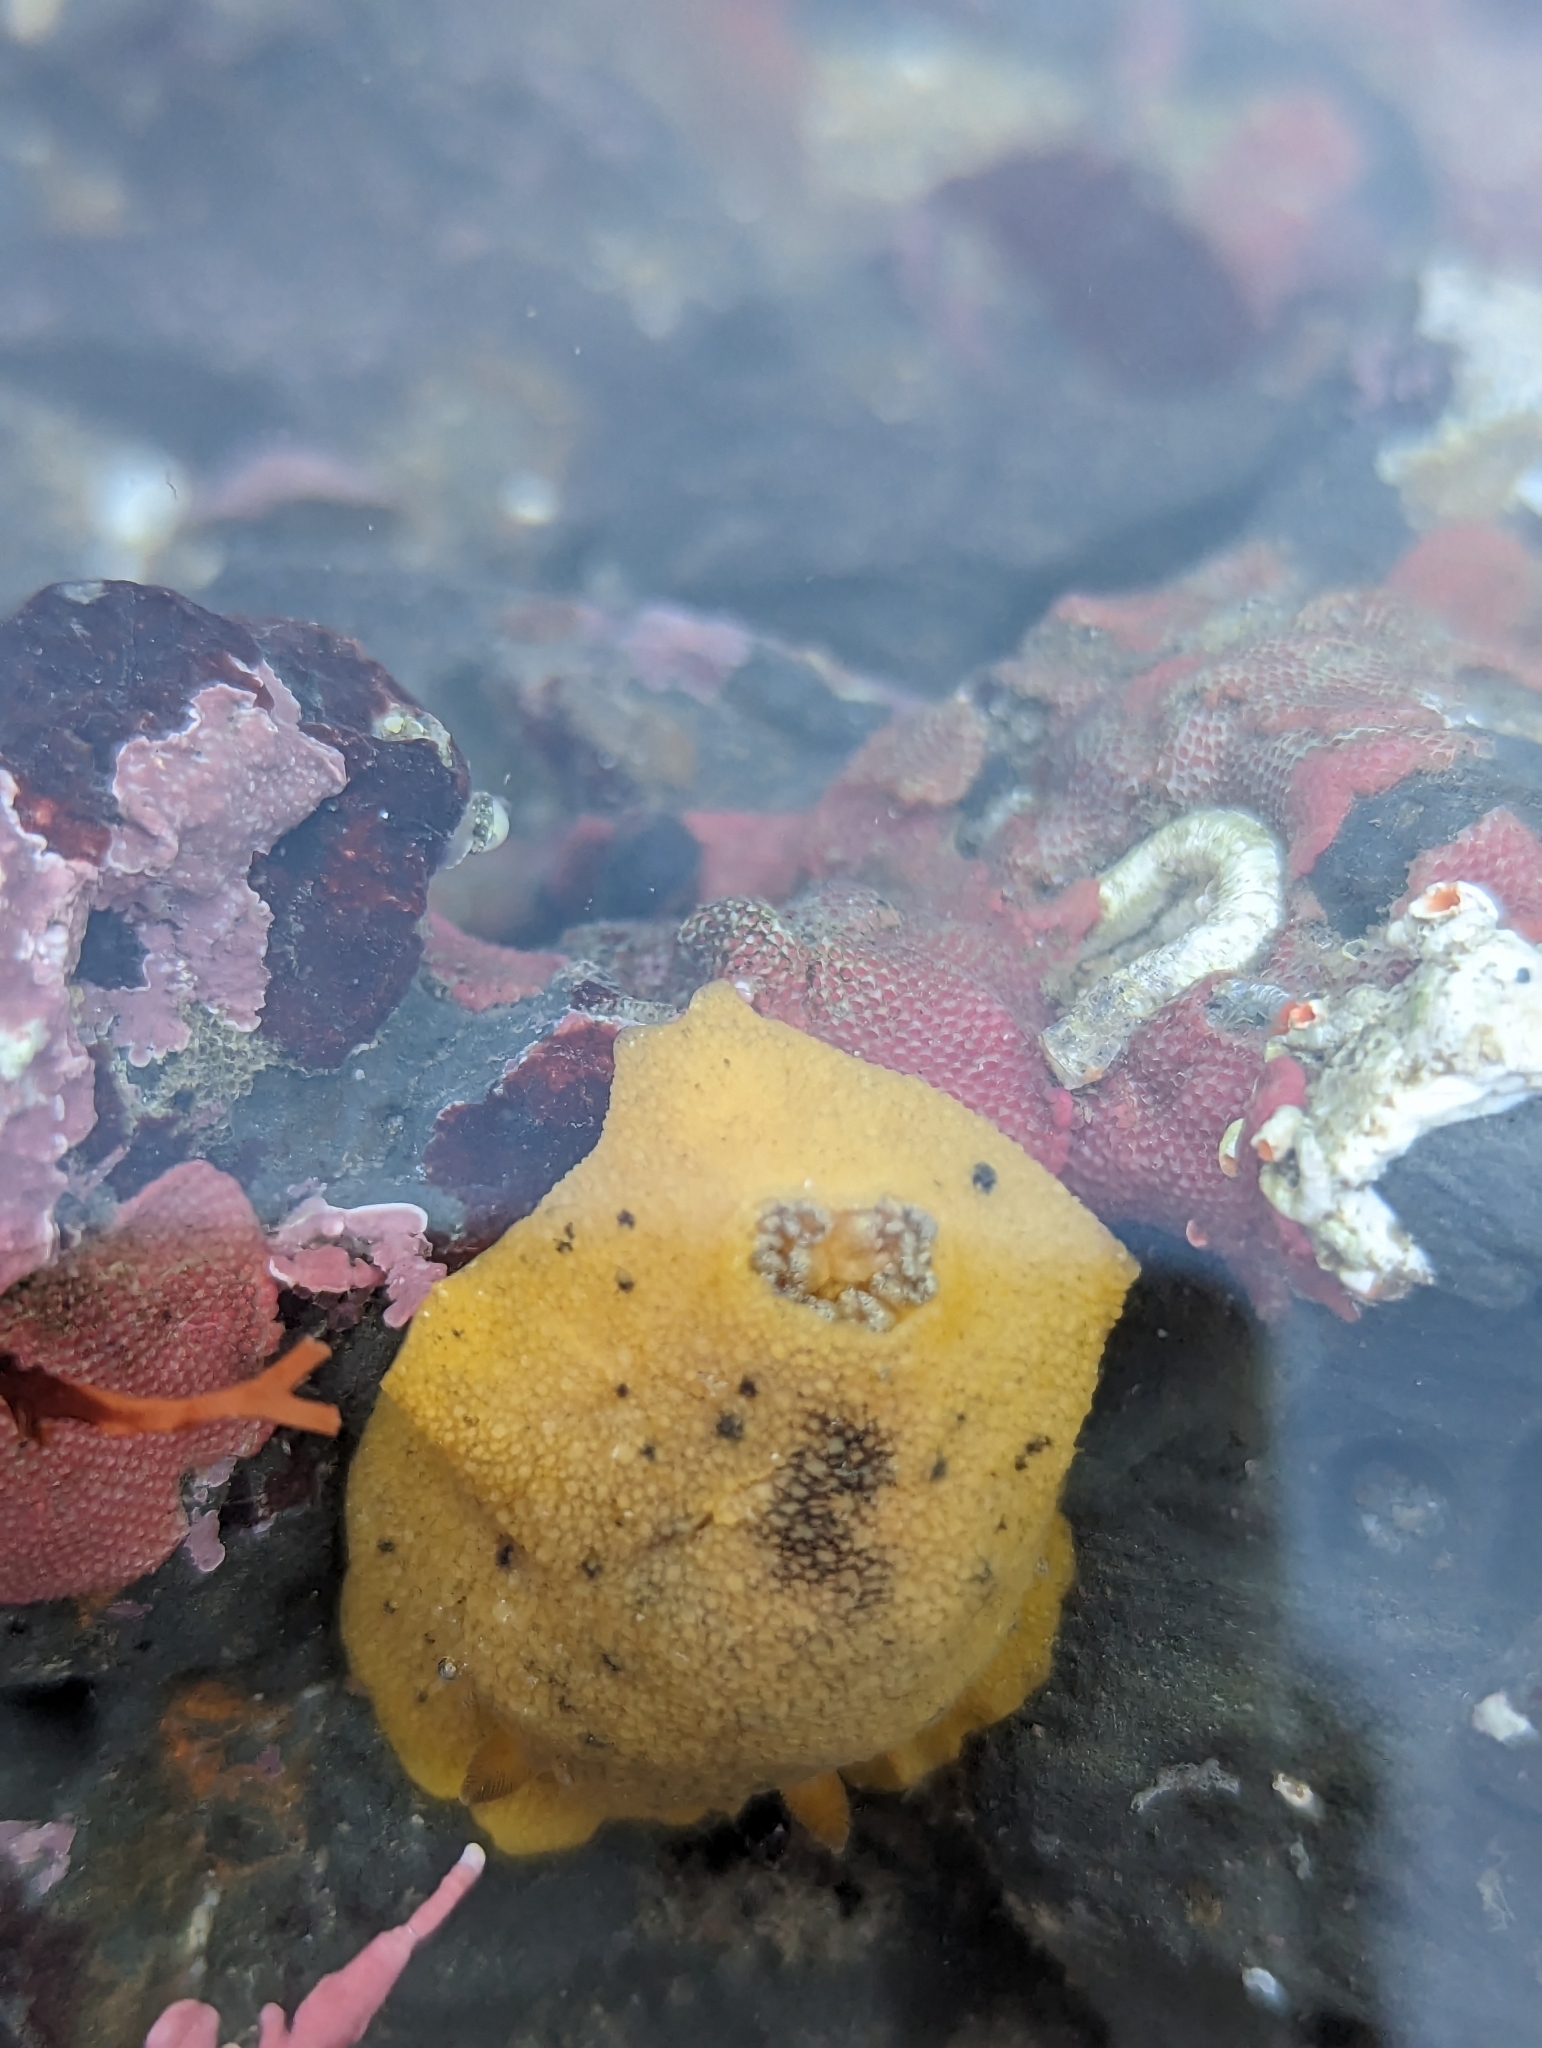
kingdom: Animalia
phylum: Mollusca
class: Gastropoda
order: Nudibranchia
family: Discodorididae
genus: Geitodoris
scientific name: Geitodoris heathi
